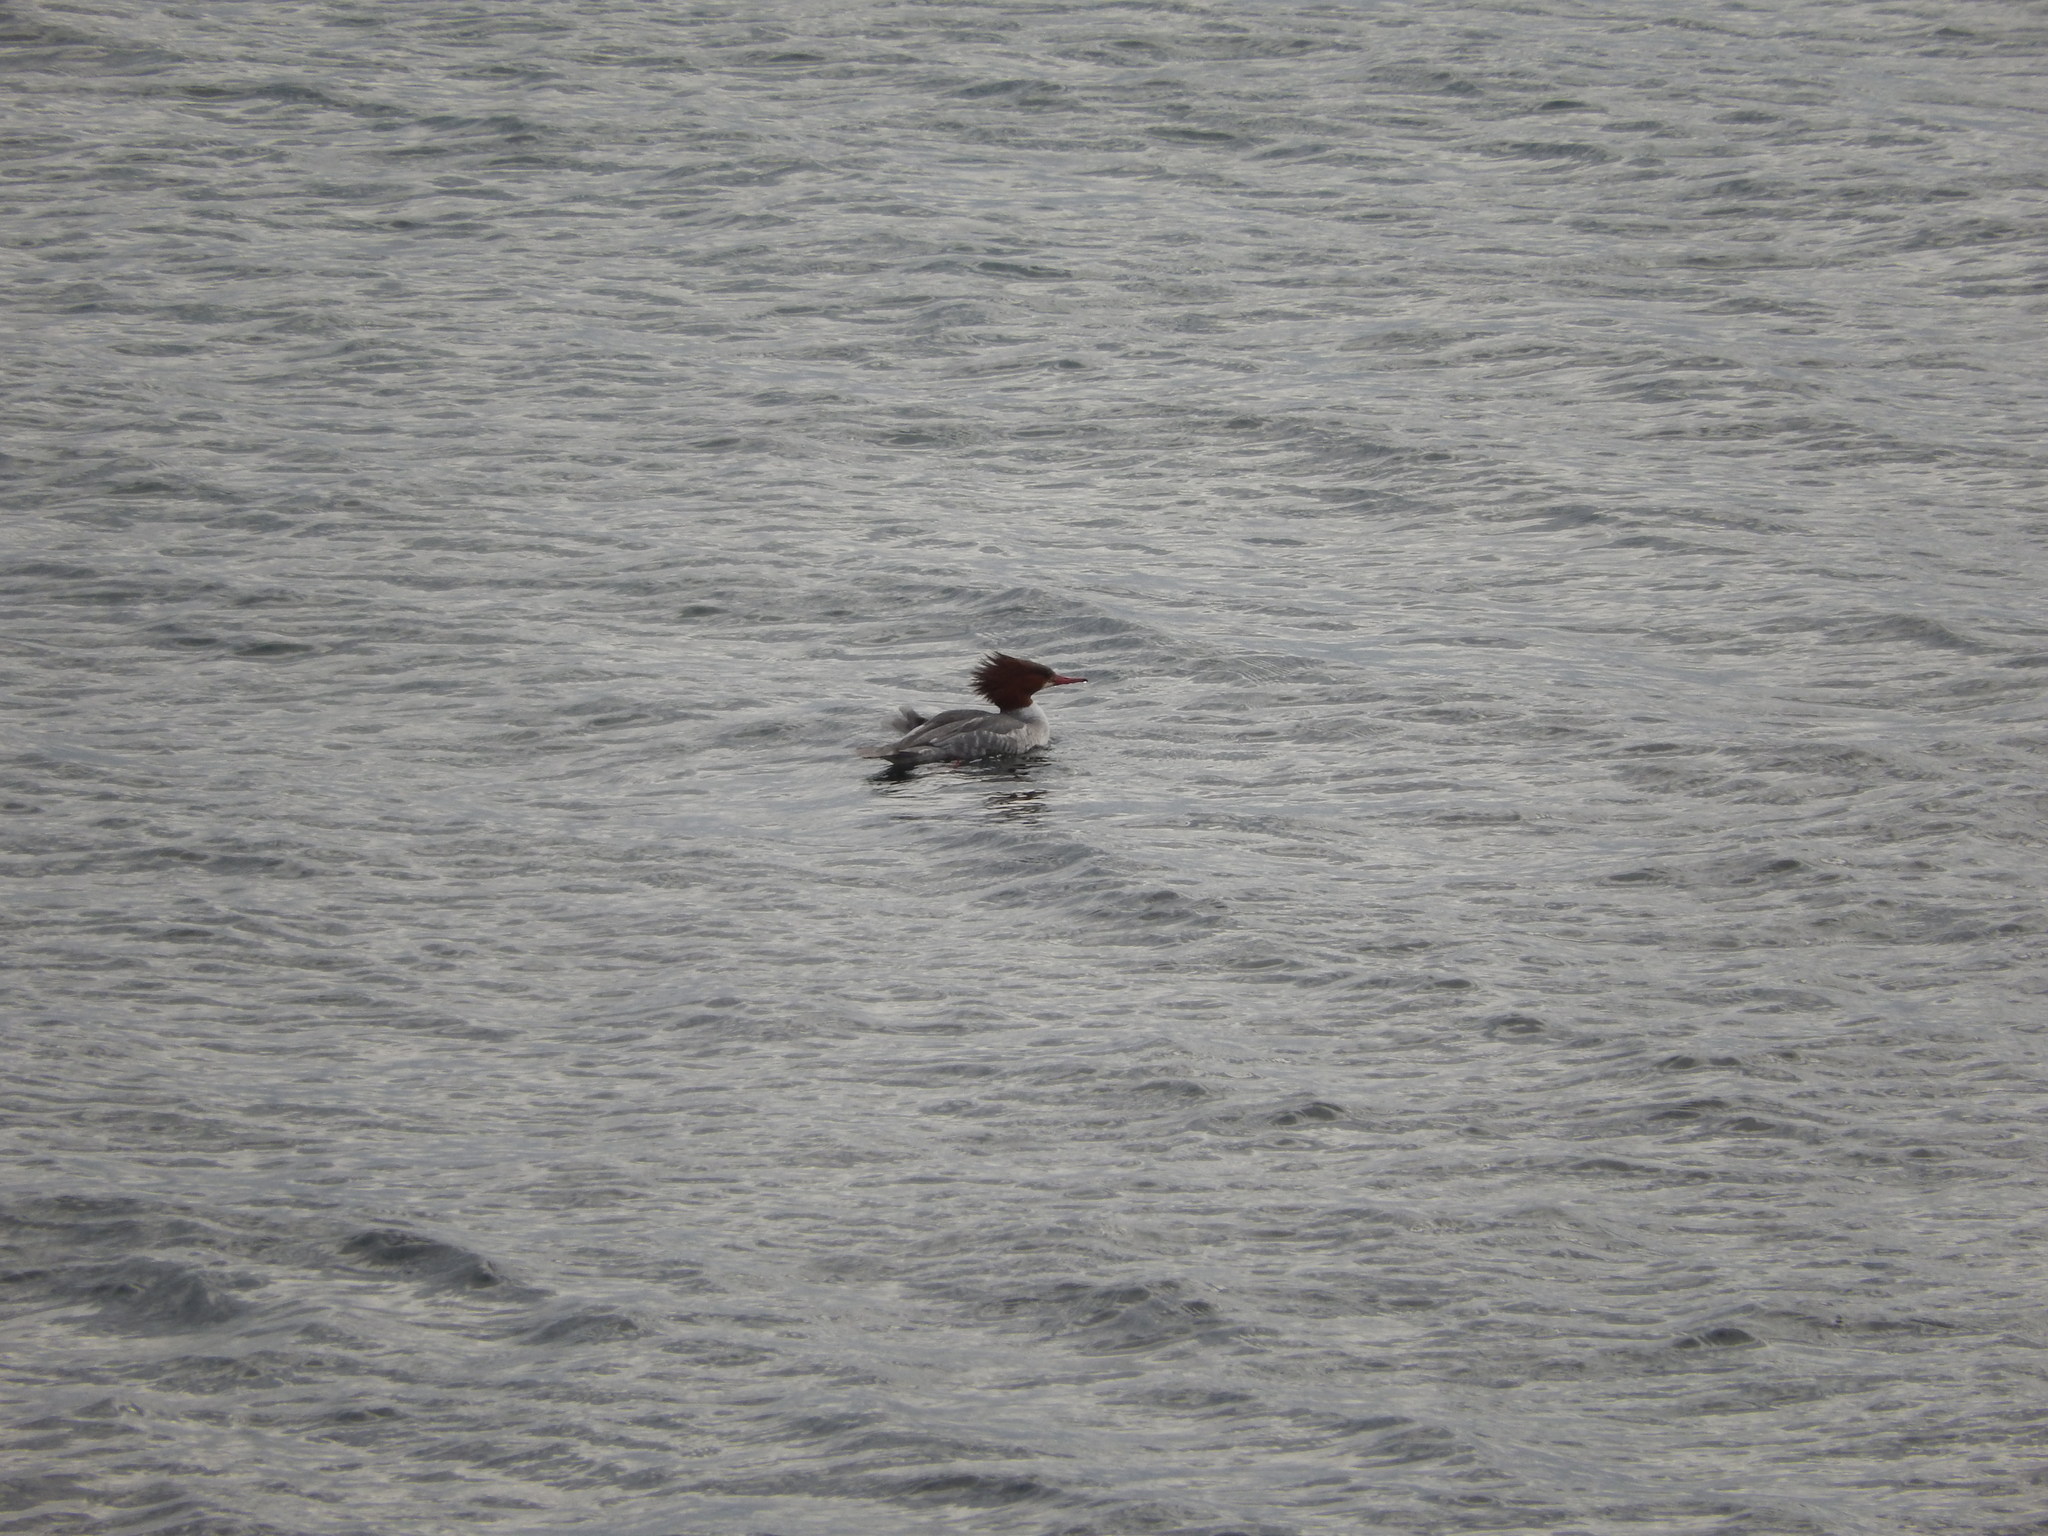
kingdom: Animalia
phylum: Chordata
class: Aves
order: Anseriformes
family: Anatidae
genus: Mergus
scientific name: Mergus merganser
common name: Common merganser
